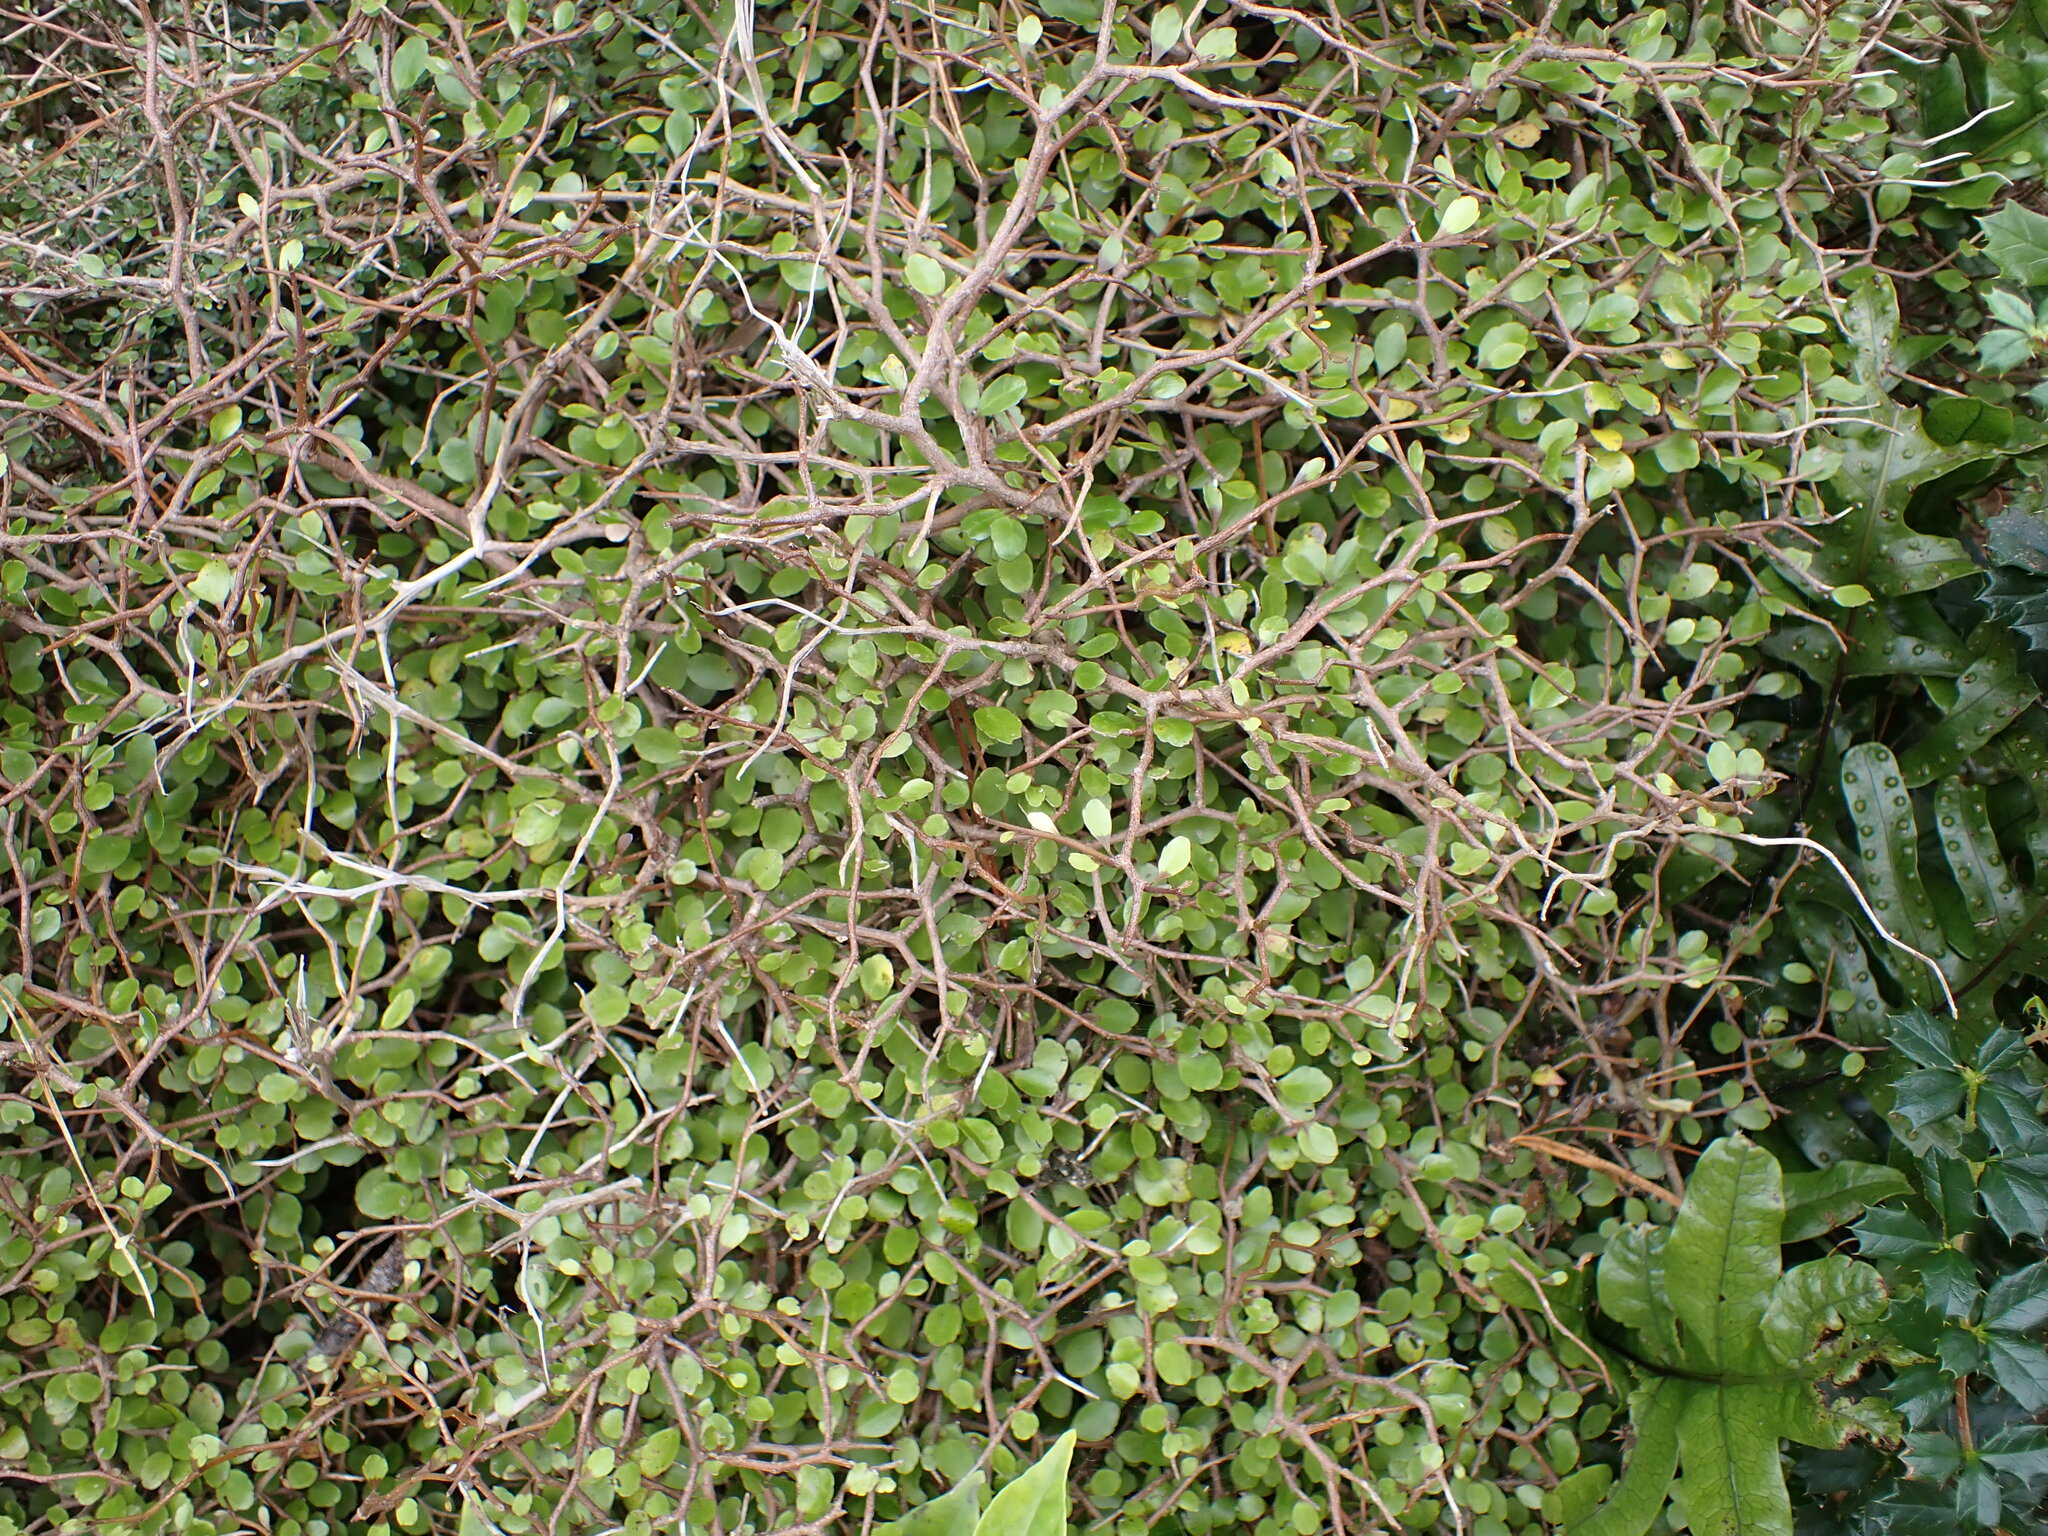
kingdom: Plantae
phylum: Tracheophyta
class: Magnoliopsida
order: Apiales
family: Araliaceae
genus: Raukaua
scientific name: Raukaua anomalus
